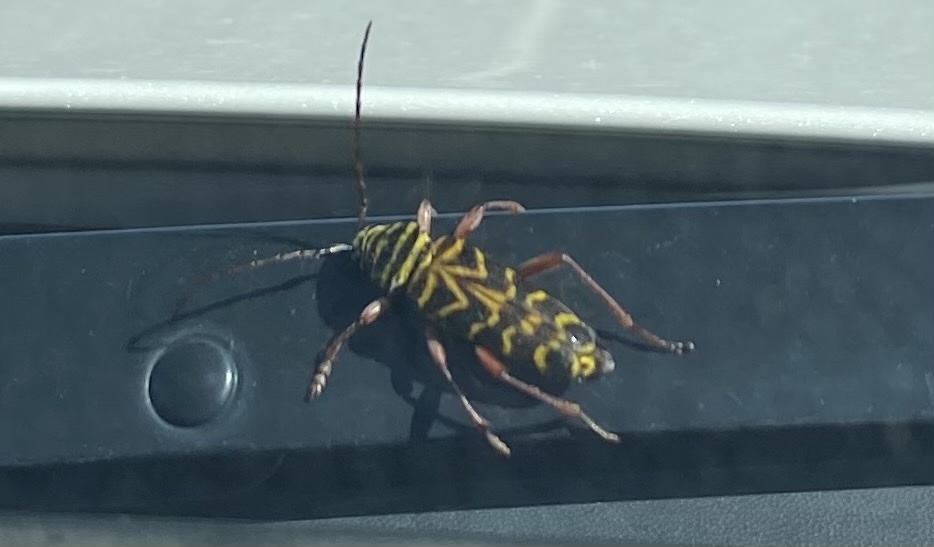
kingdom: Animalia
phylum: Arthropoda
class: Insecta
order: Coleoptera
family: Cerambycidae
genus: Megacyllene
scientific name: Megacyllene robiniae
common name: Locust borer
